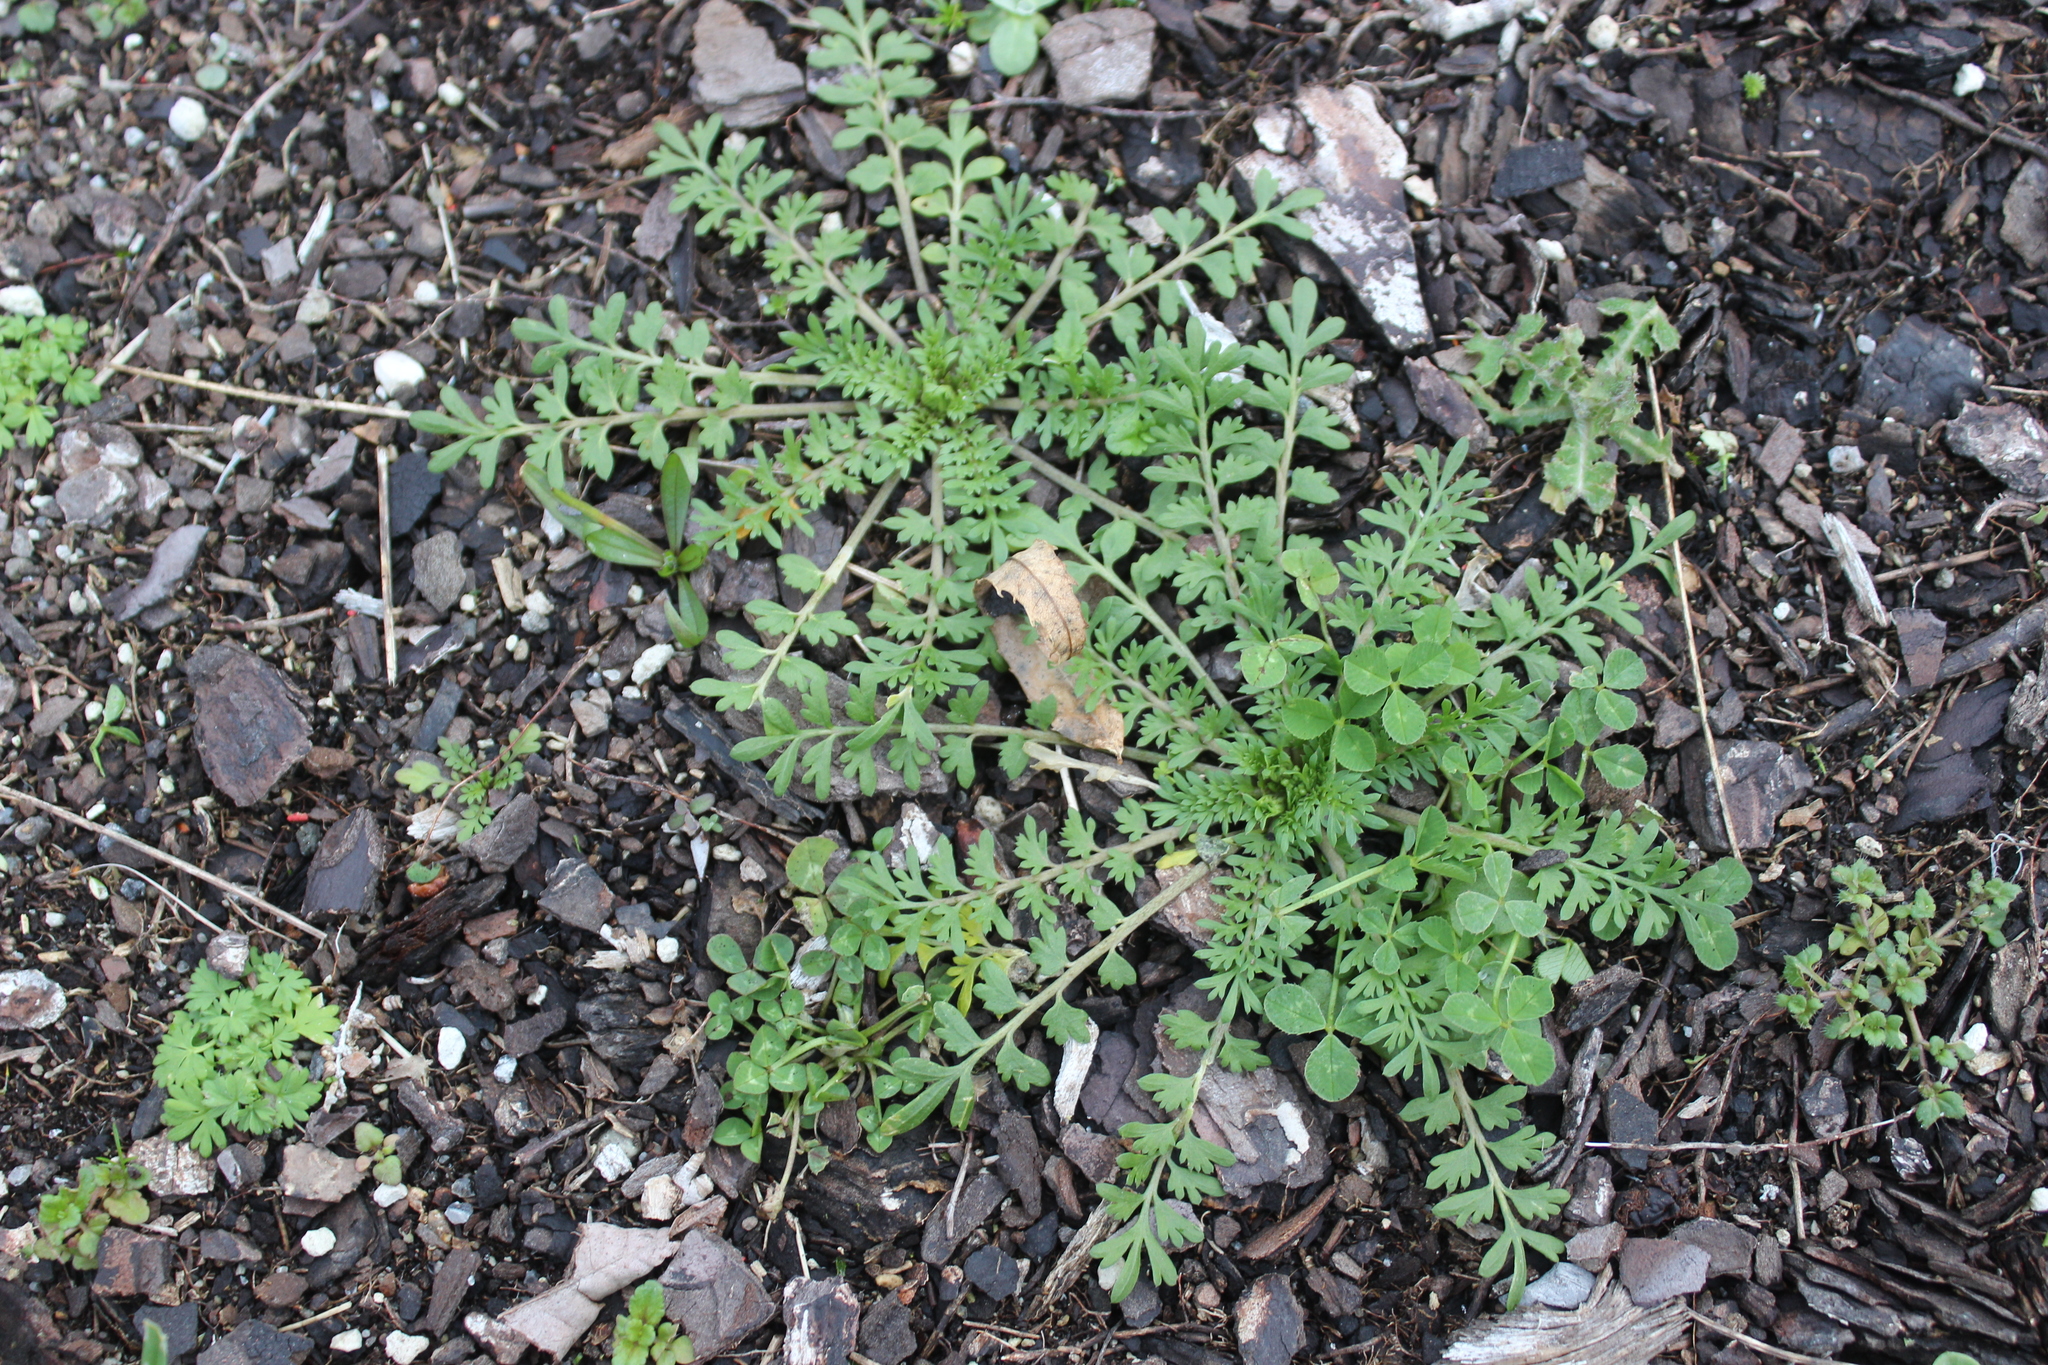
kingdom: Plantae
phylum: Tracheophyta
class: Magnoliopsida
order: Brassicales
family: Brassicaceae
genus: Lepidium
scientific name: Lepidium didymum
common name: Lesser swinecress
